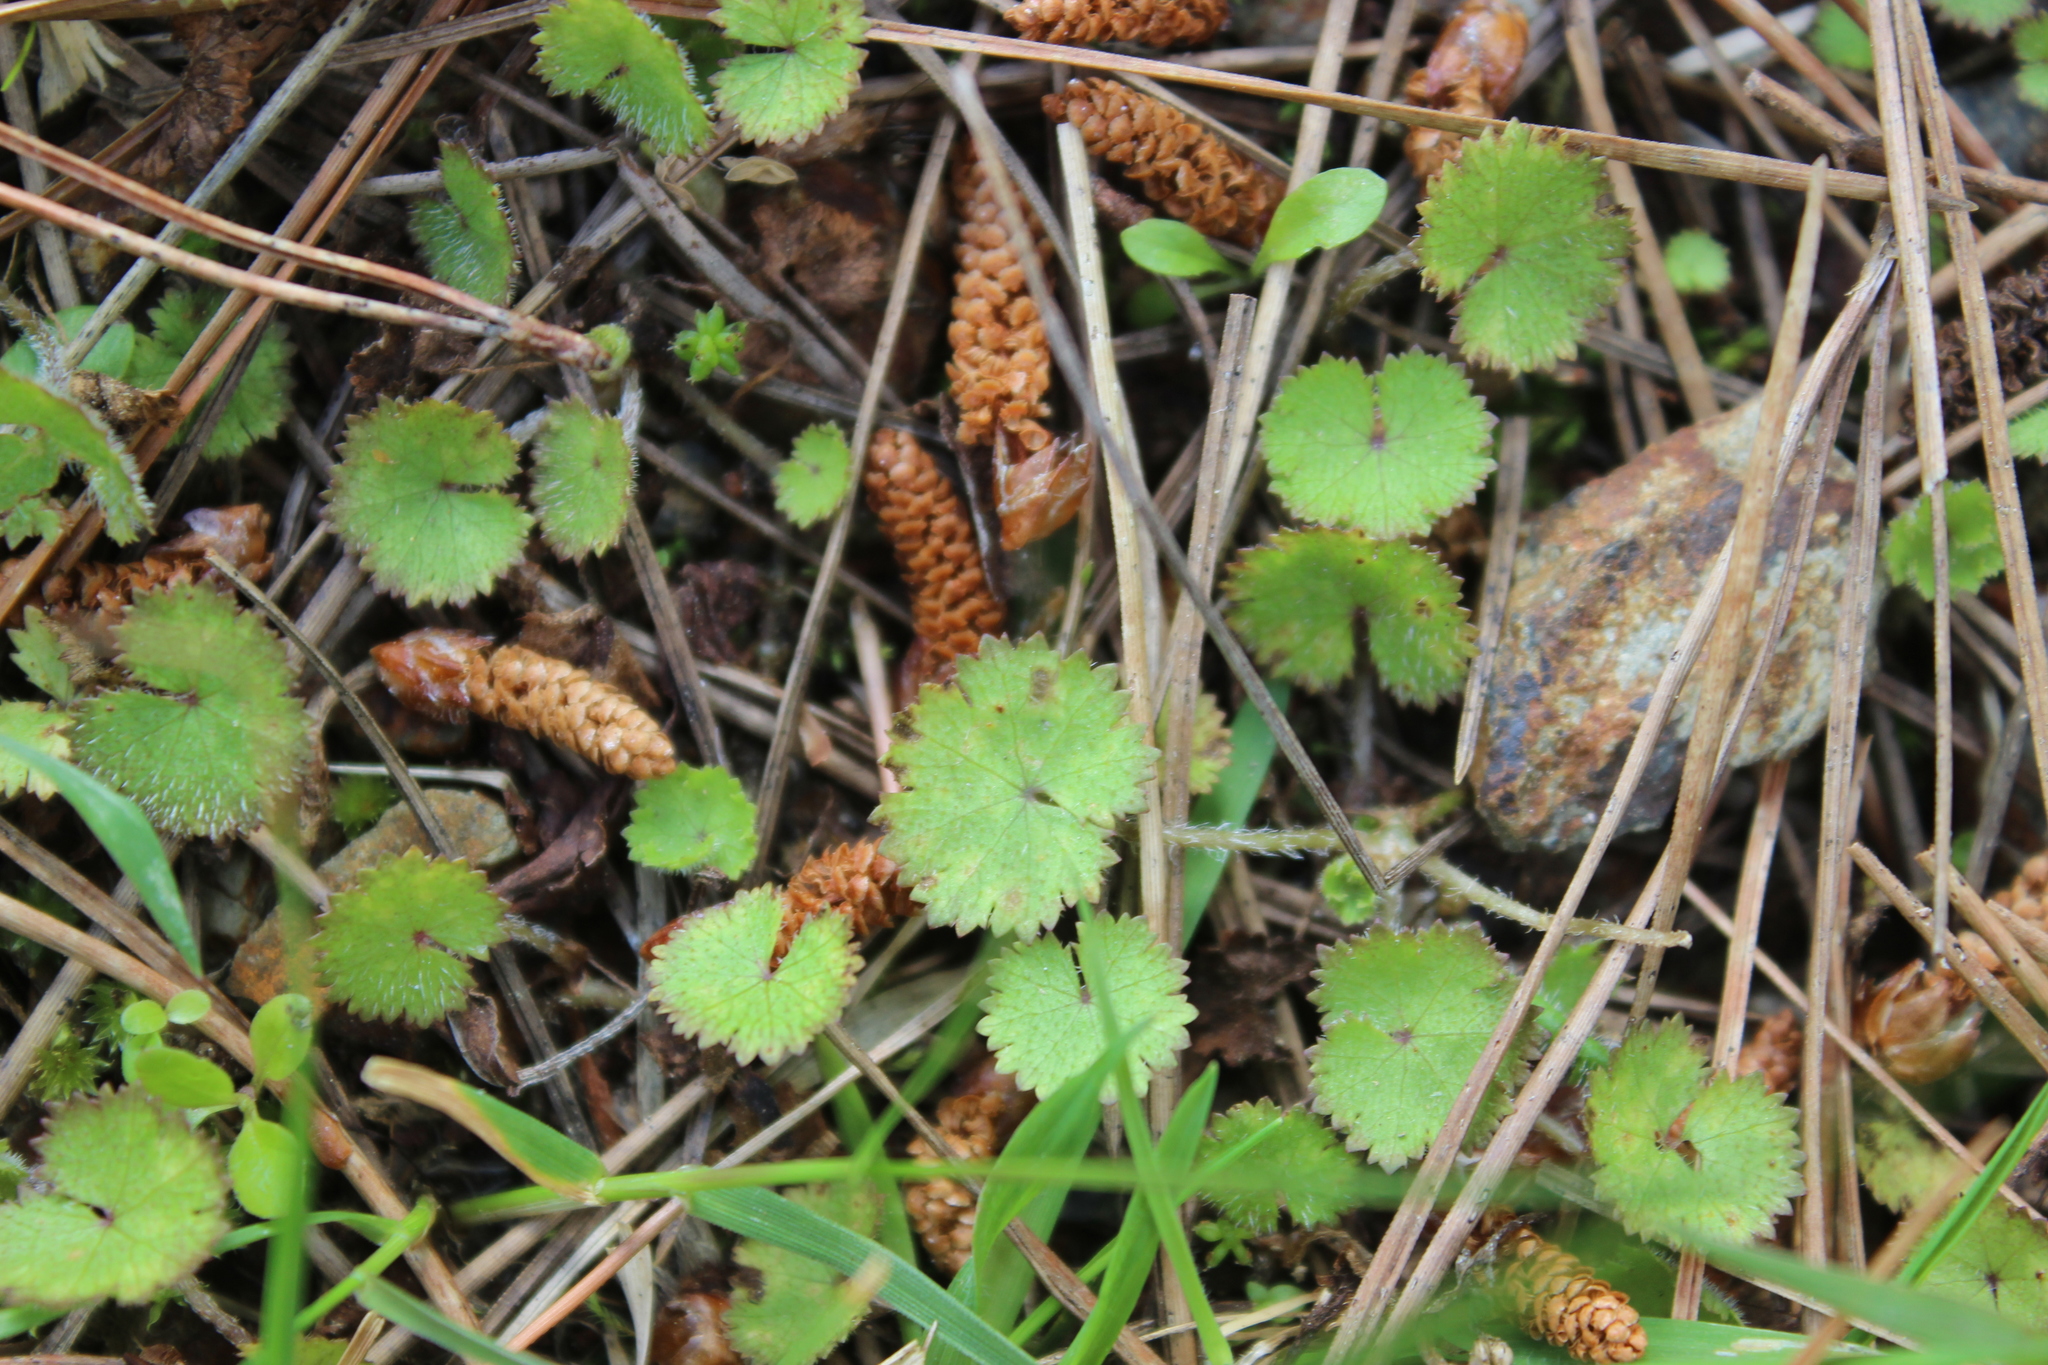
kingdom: Plantae
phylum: Tracheophyta
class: Magnoliopsida
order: Apiales
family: Araliaceae
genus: Hydrocotyle
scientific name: Hydrocotyle moschata
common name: Hairy pennywort
